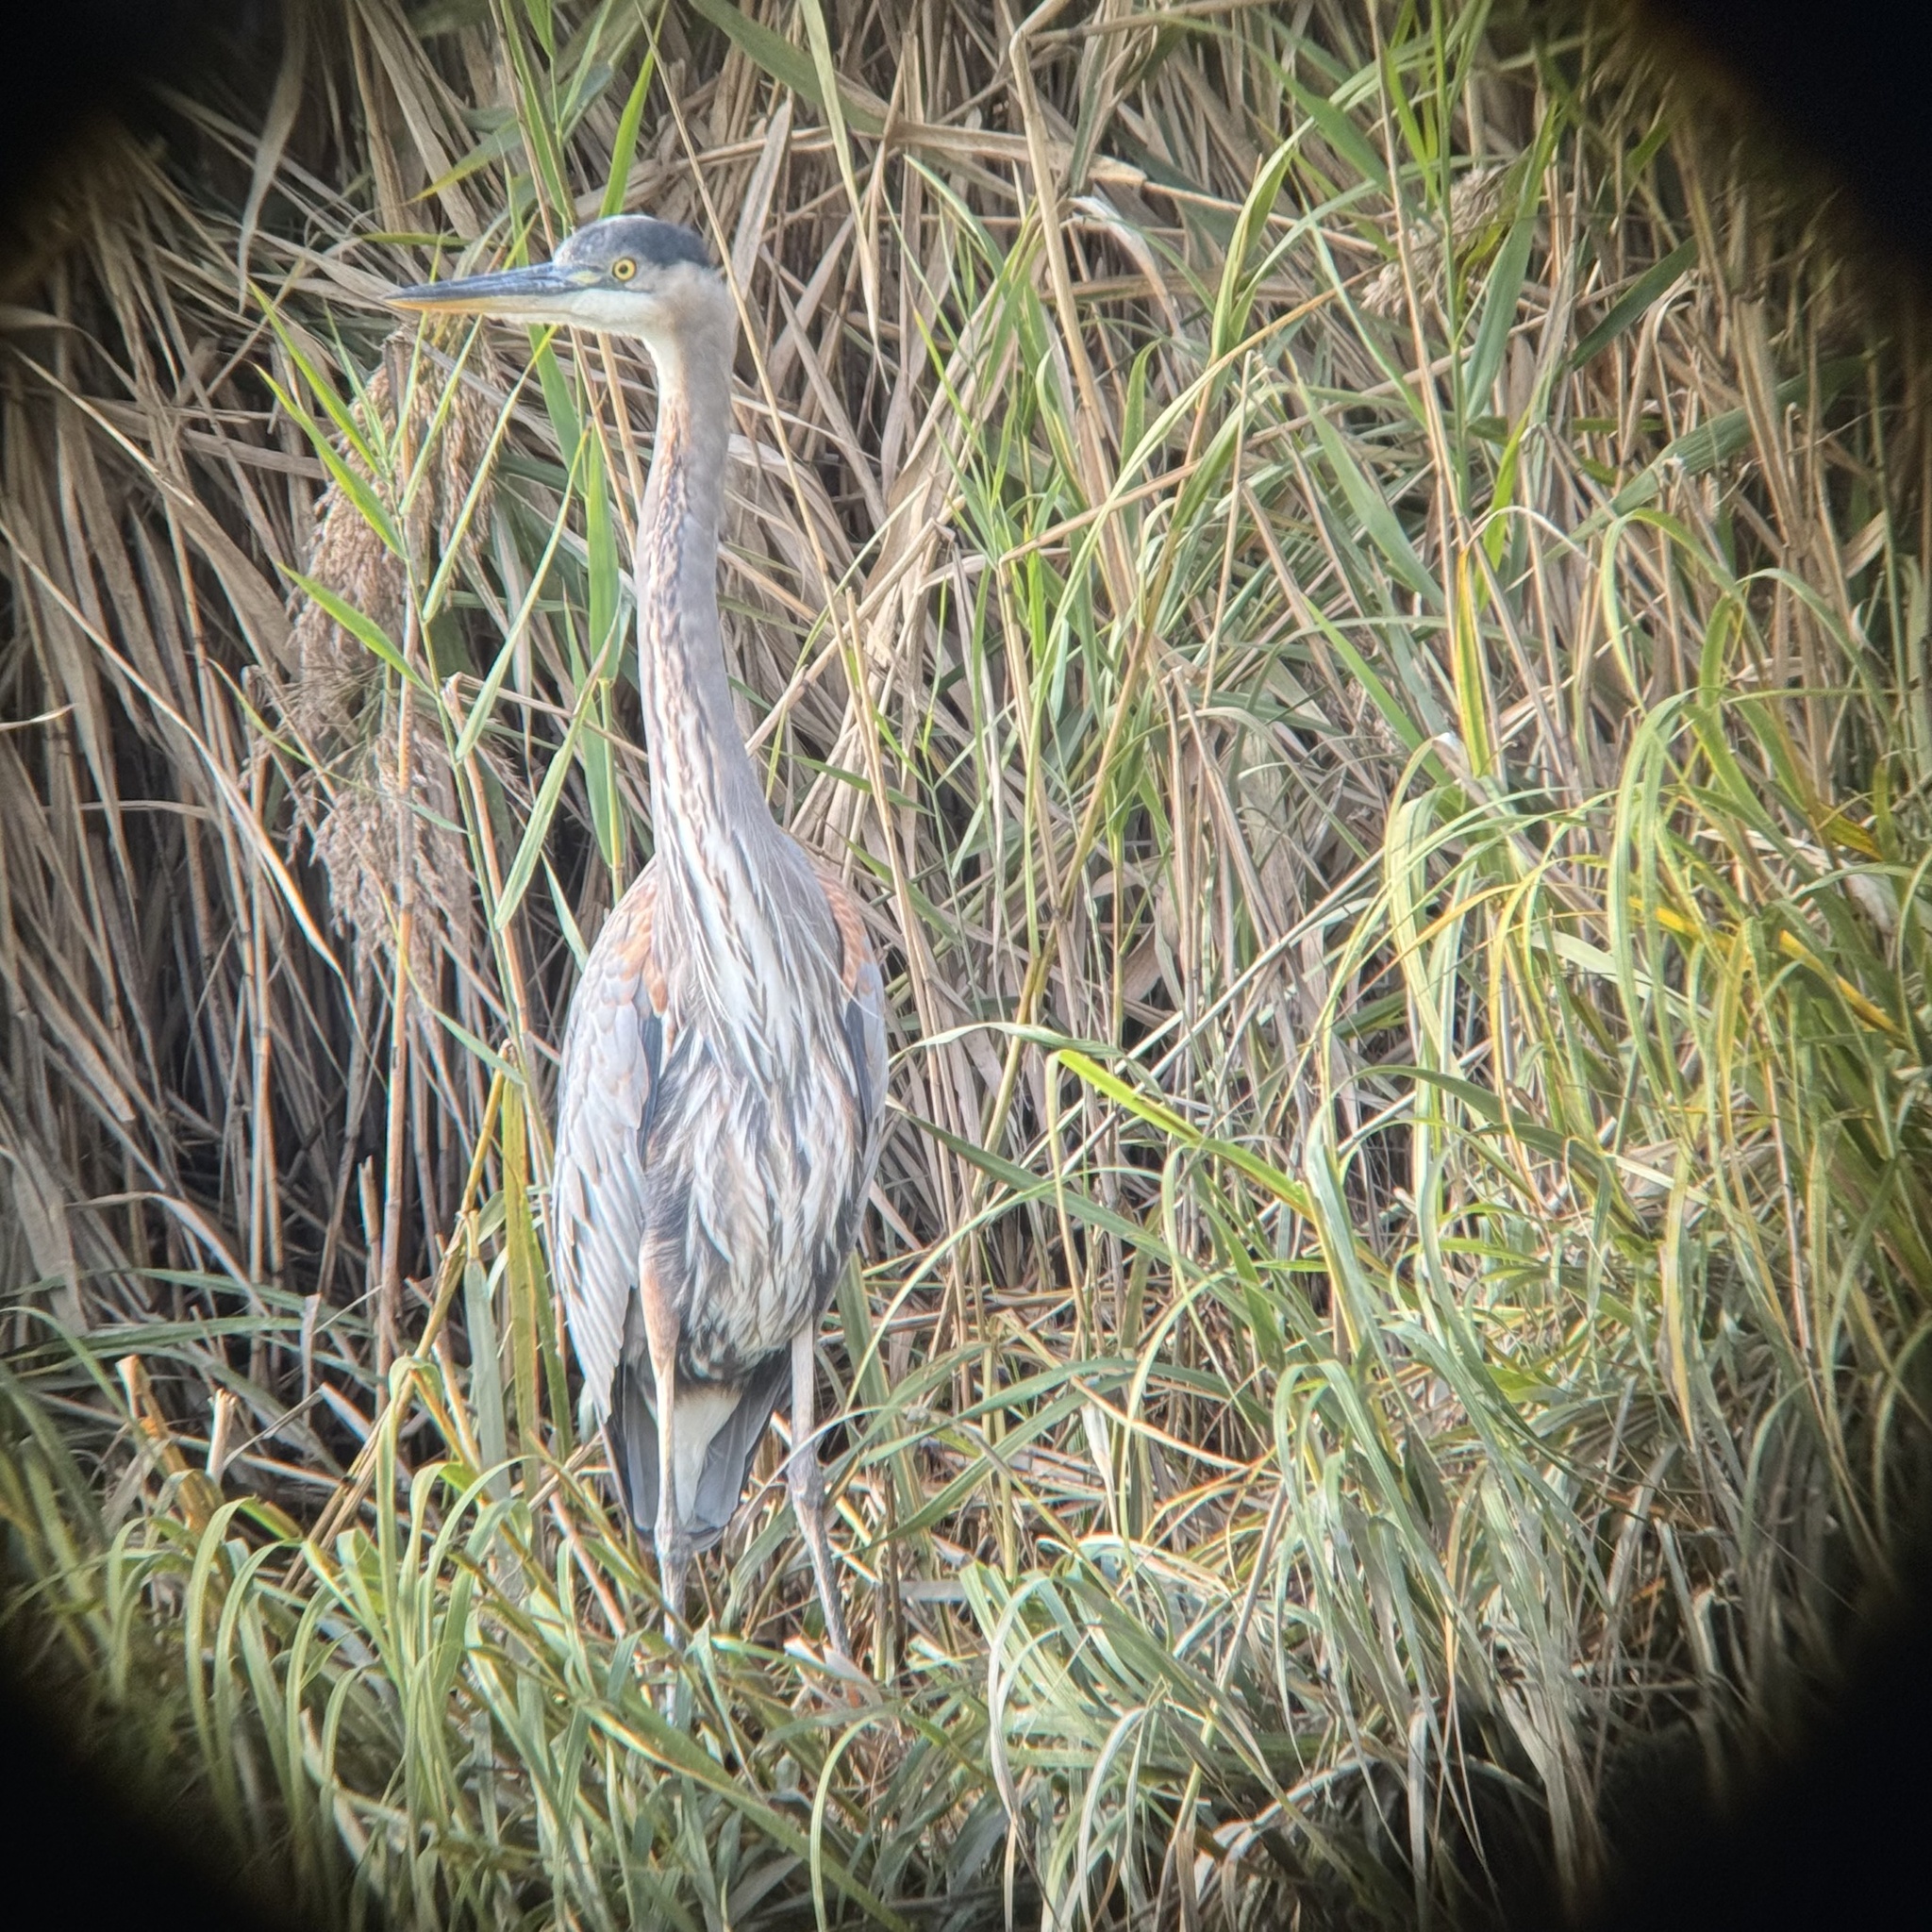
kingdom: Animalia
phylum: Chordata
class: Aves
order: Pelecaniformes
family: Ardeidae
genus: Ardea
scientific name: Ardea herodias
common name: Great blue heron
